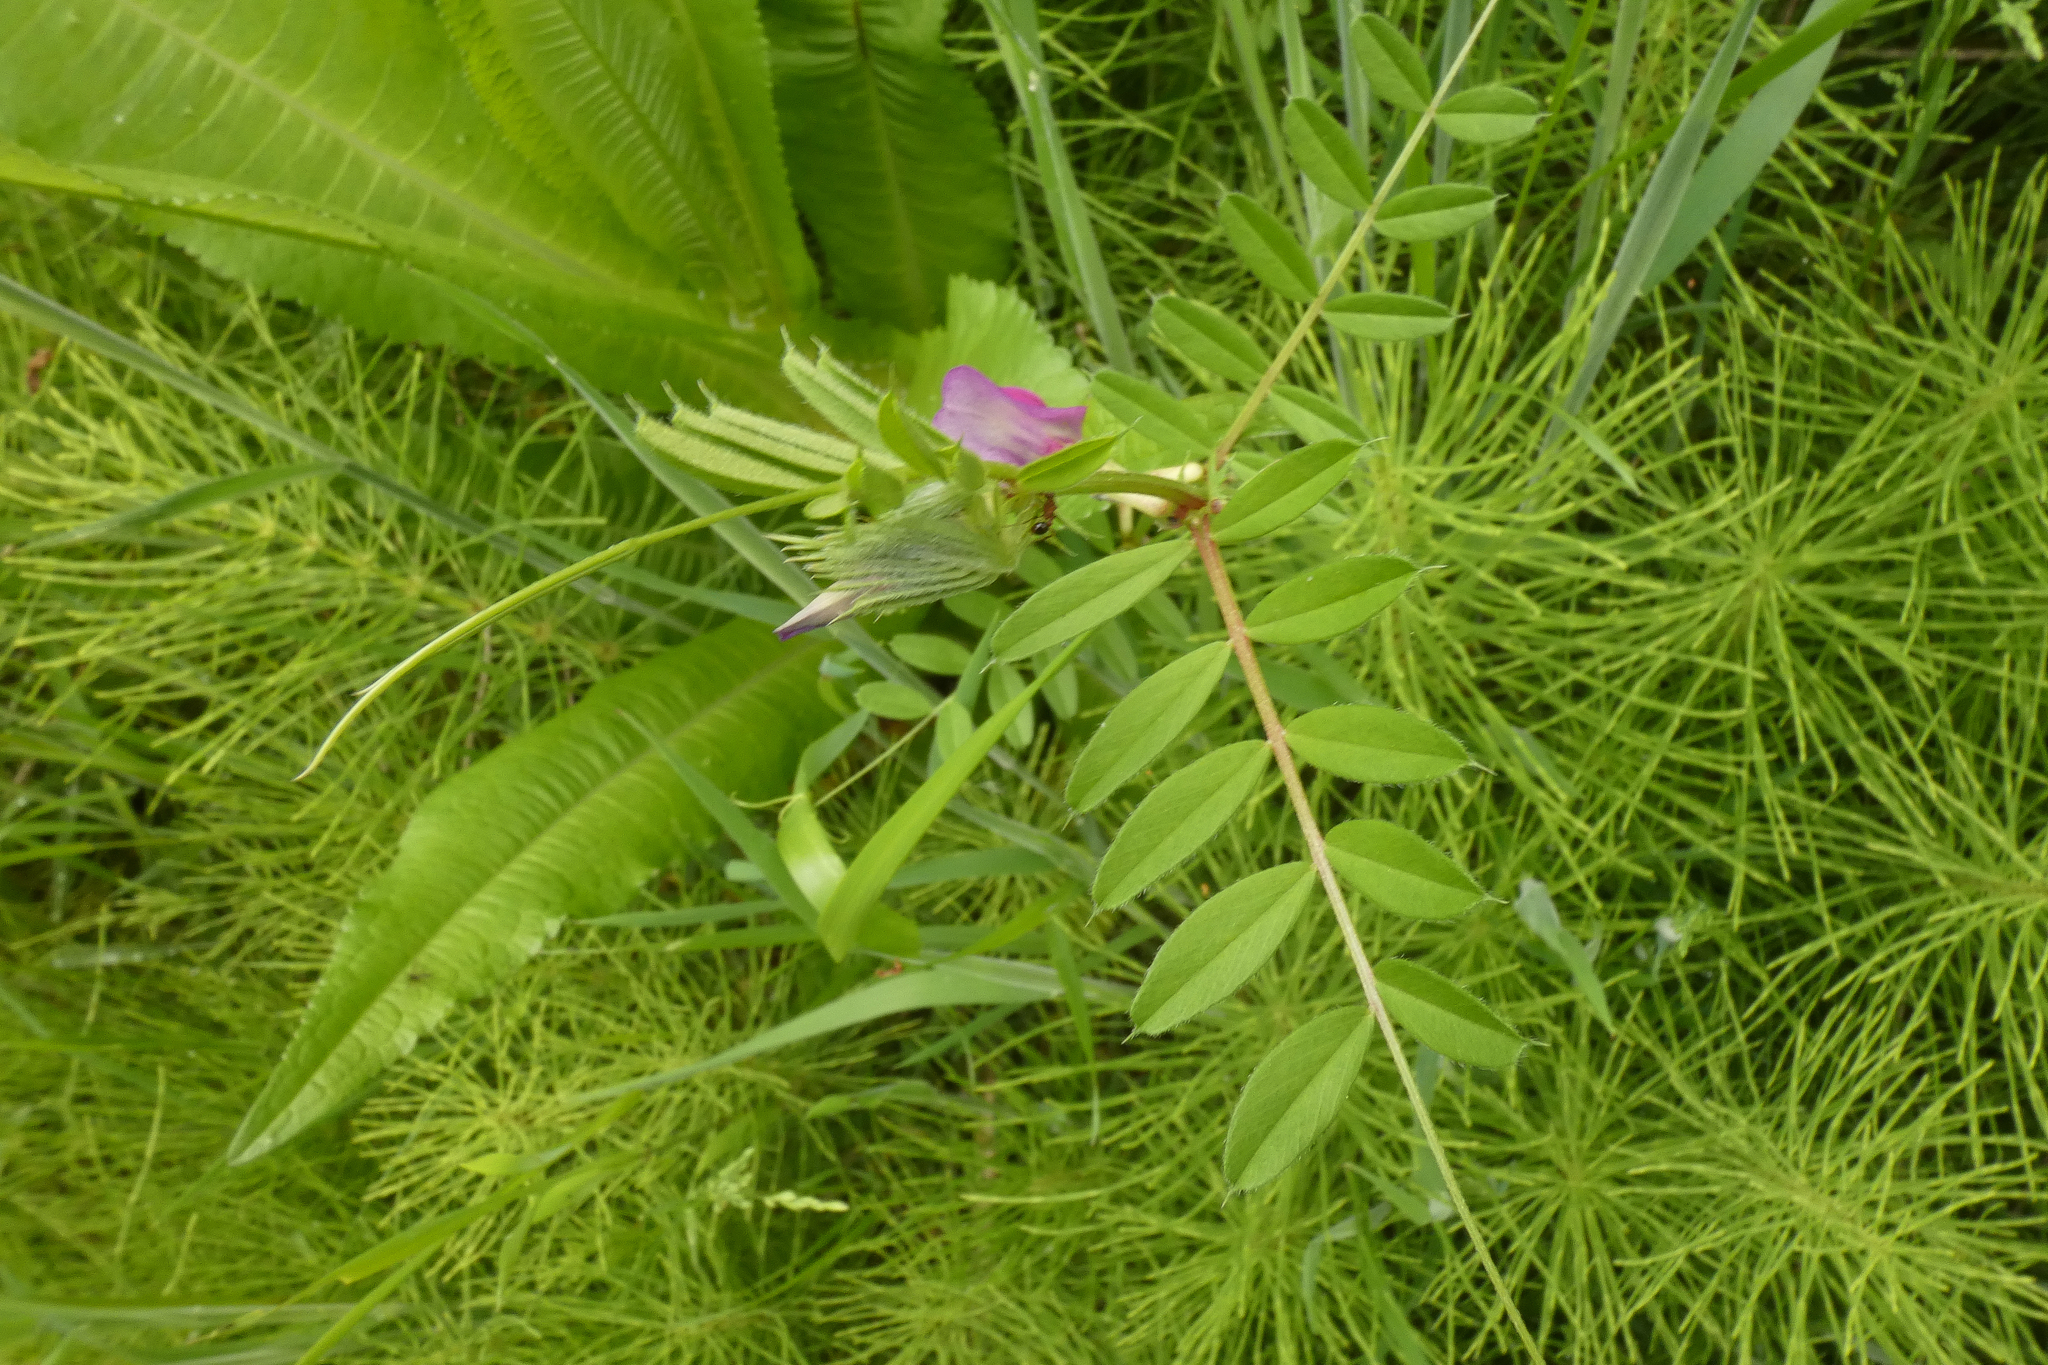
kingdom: Plantae
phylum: Tracheophyta
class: Magnoliopsida
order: Fabales
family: Fabaceae
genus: Vicia
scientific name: Vicia sativa
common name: Garden vetch
